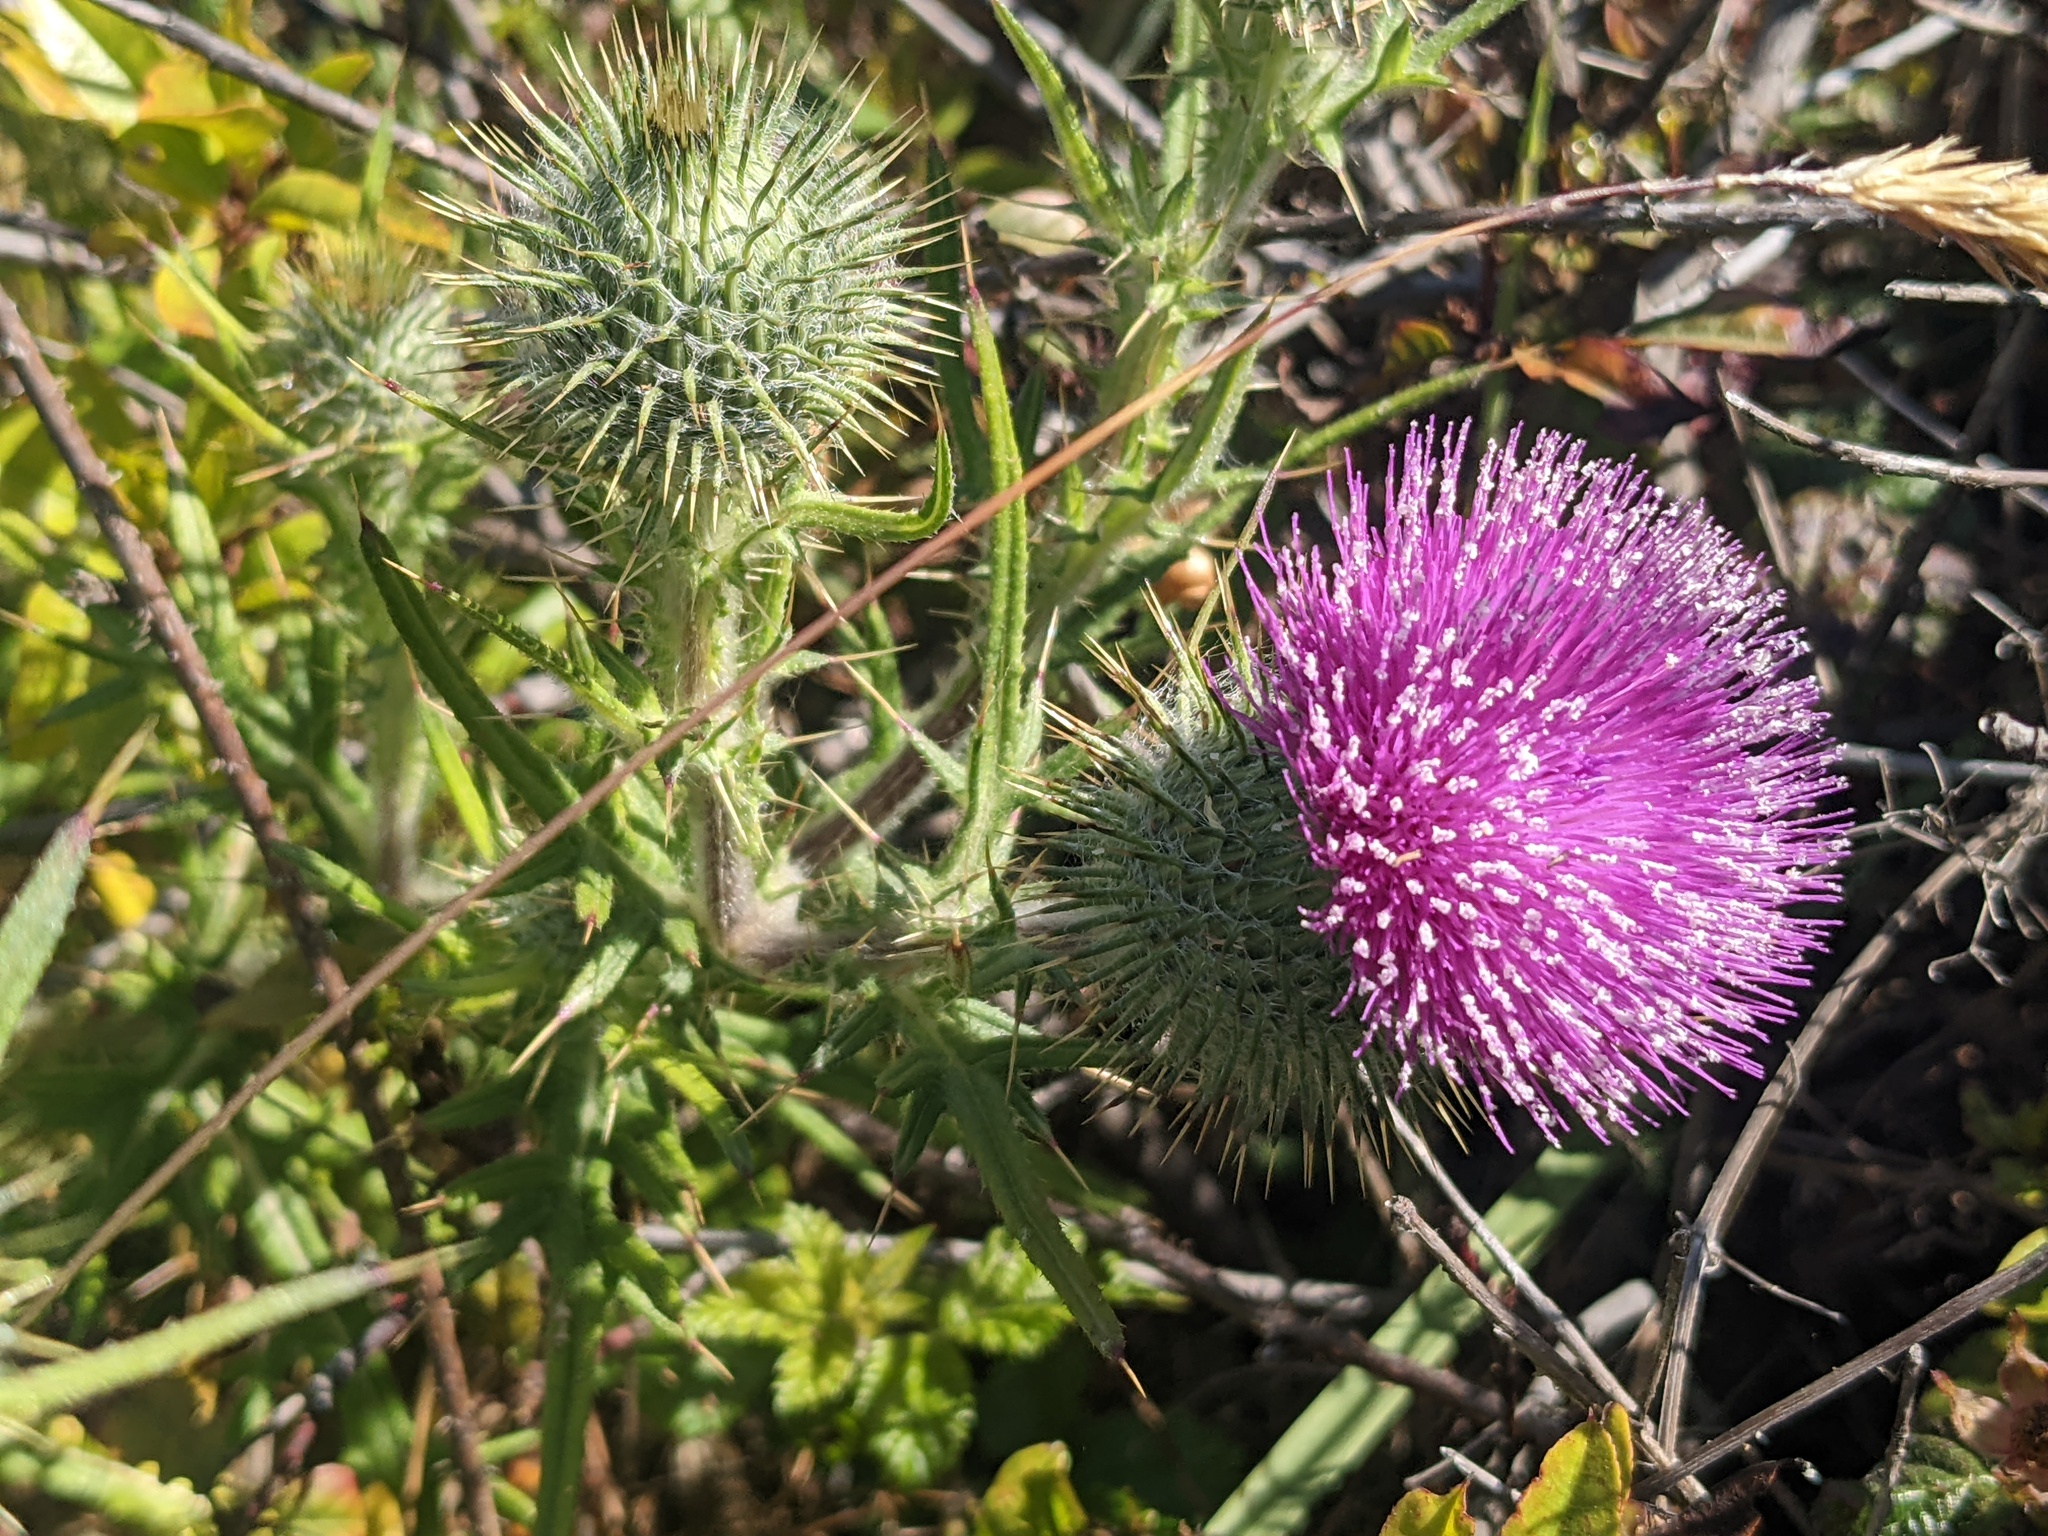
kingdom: Plantae
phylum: Tracheophyta
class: Magnoliopsida
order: Asterales
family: Asteraceae
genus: Cirsium
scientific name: Cirsium vulgare
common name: Bull thistle
